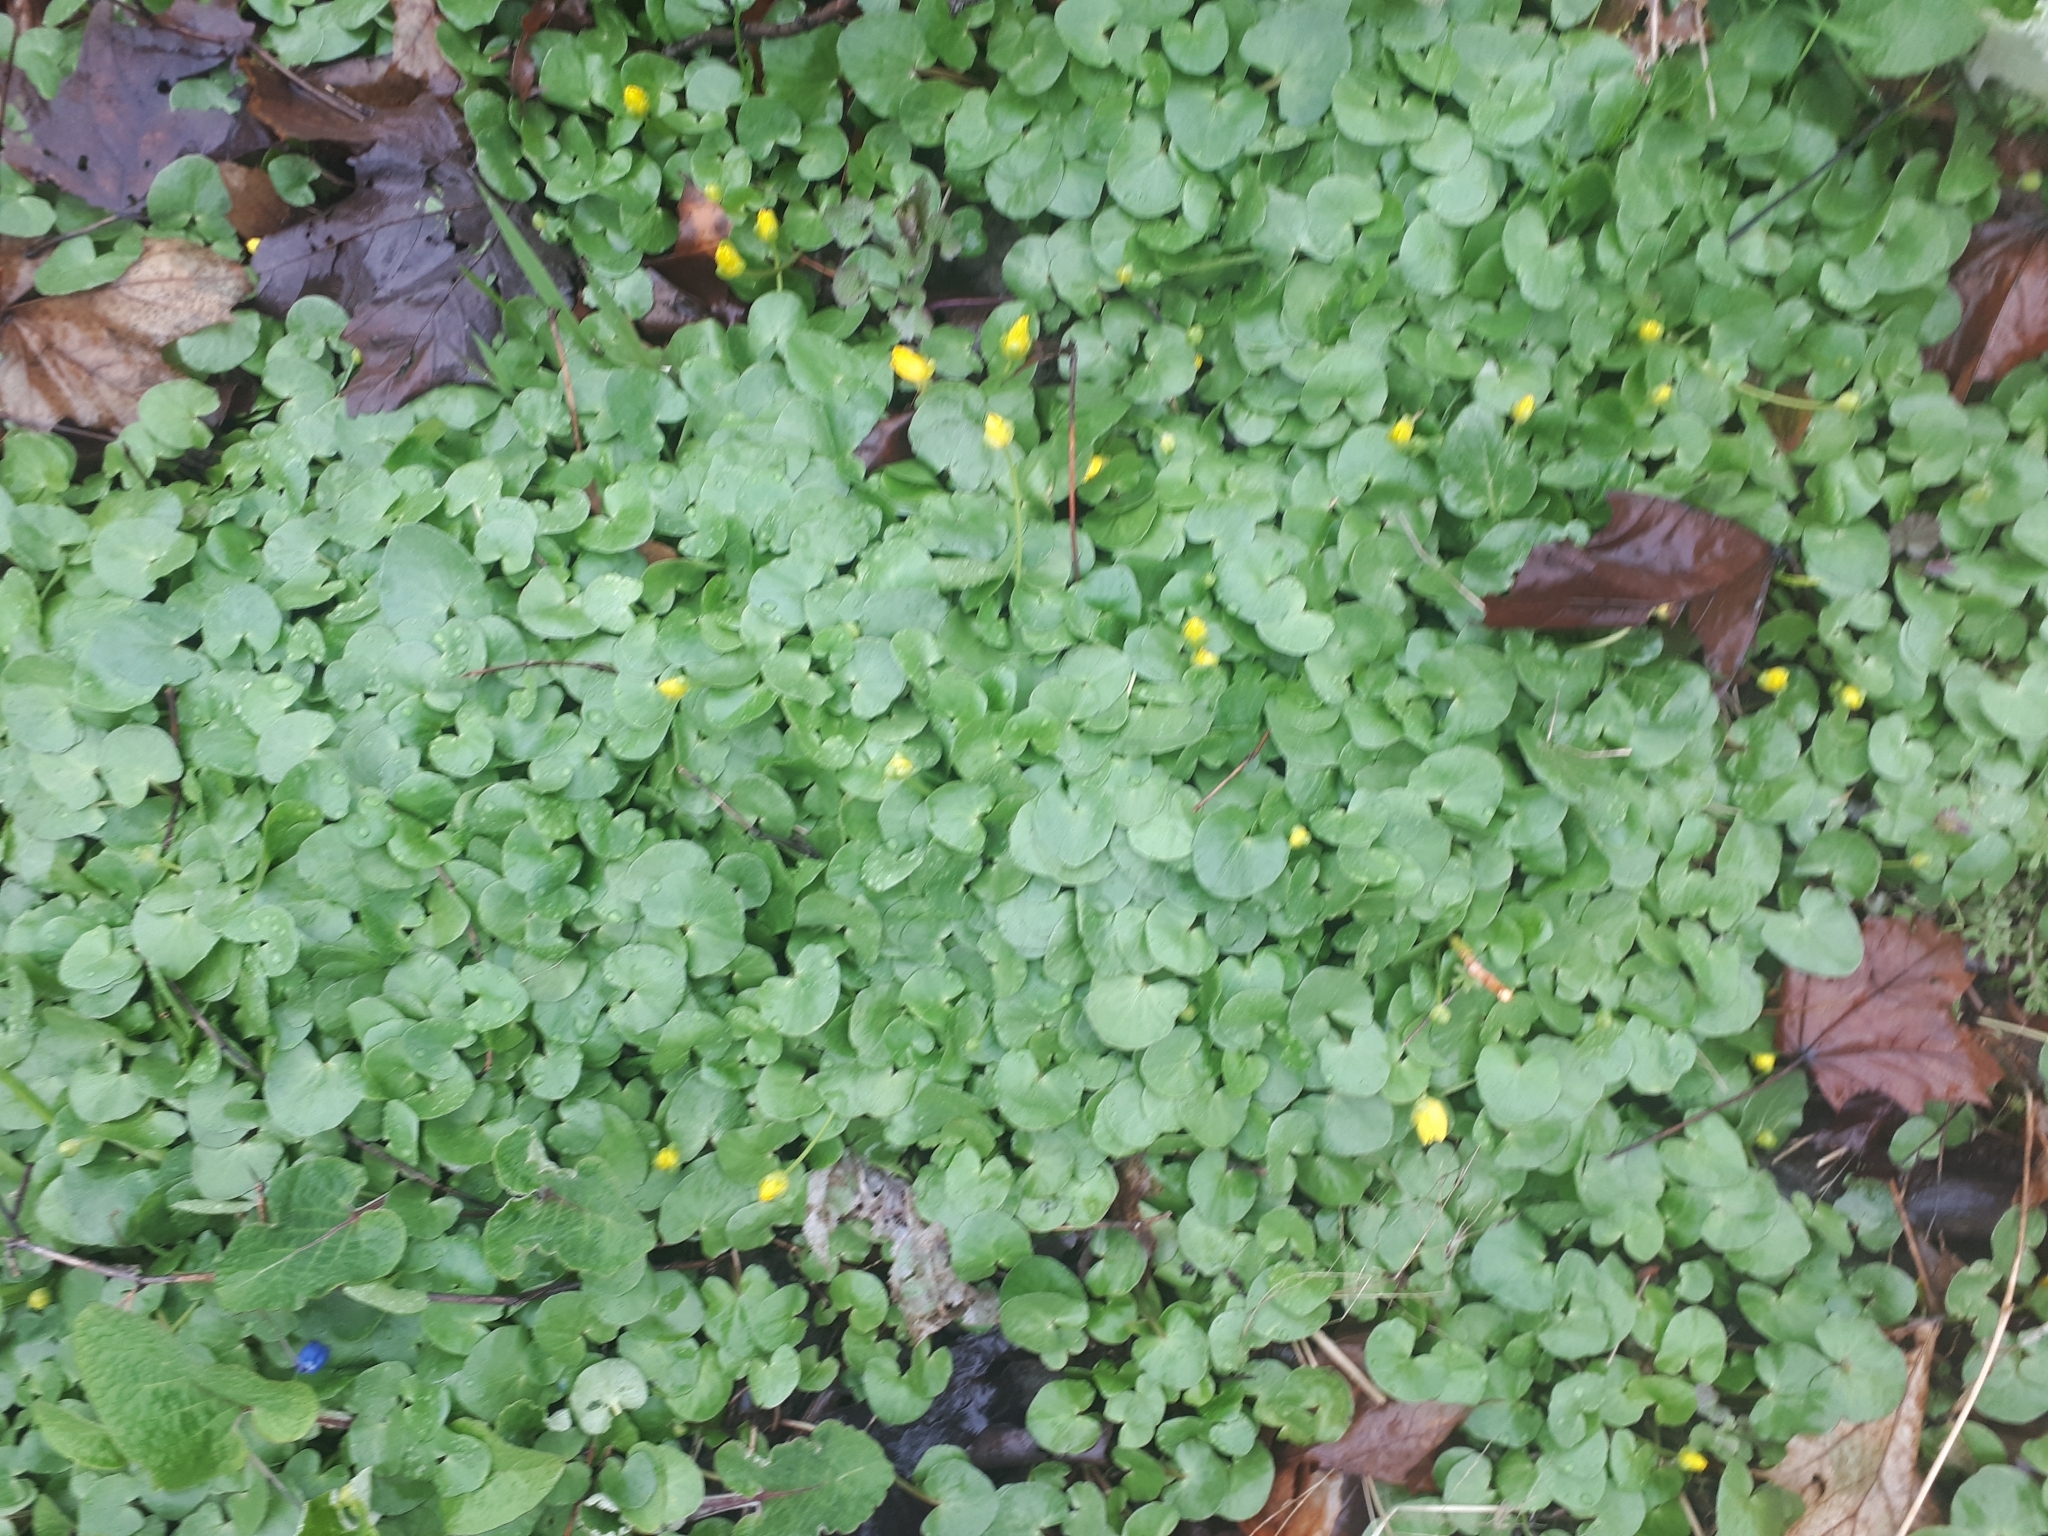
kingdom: Plantae
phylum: Tracheophyta
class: Magnoliopsida
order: Ranunculales
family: Ranunculaceae
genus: Ficaria
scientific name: Ficaria verna
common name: Lesser celandine
